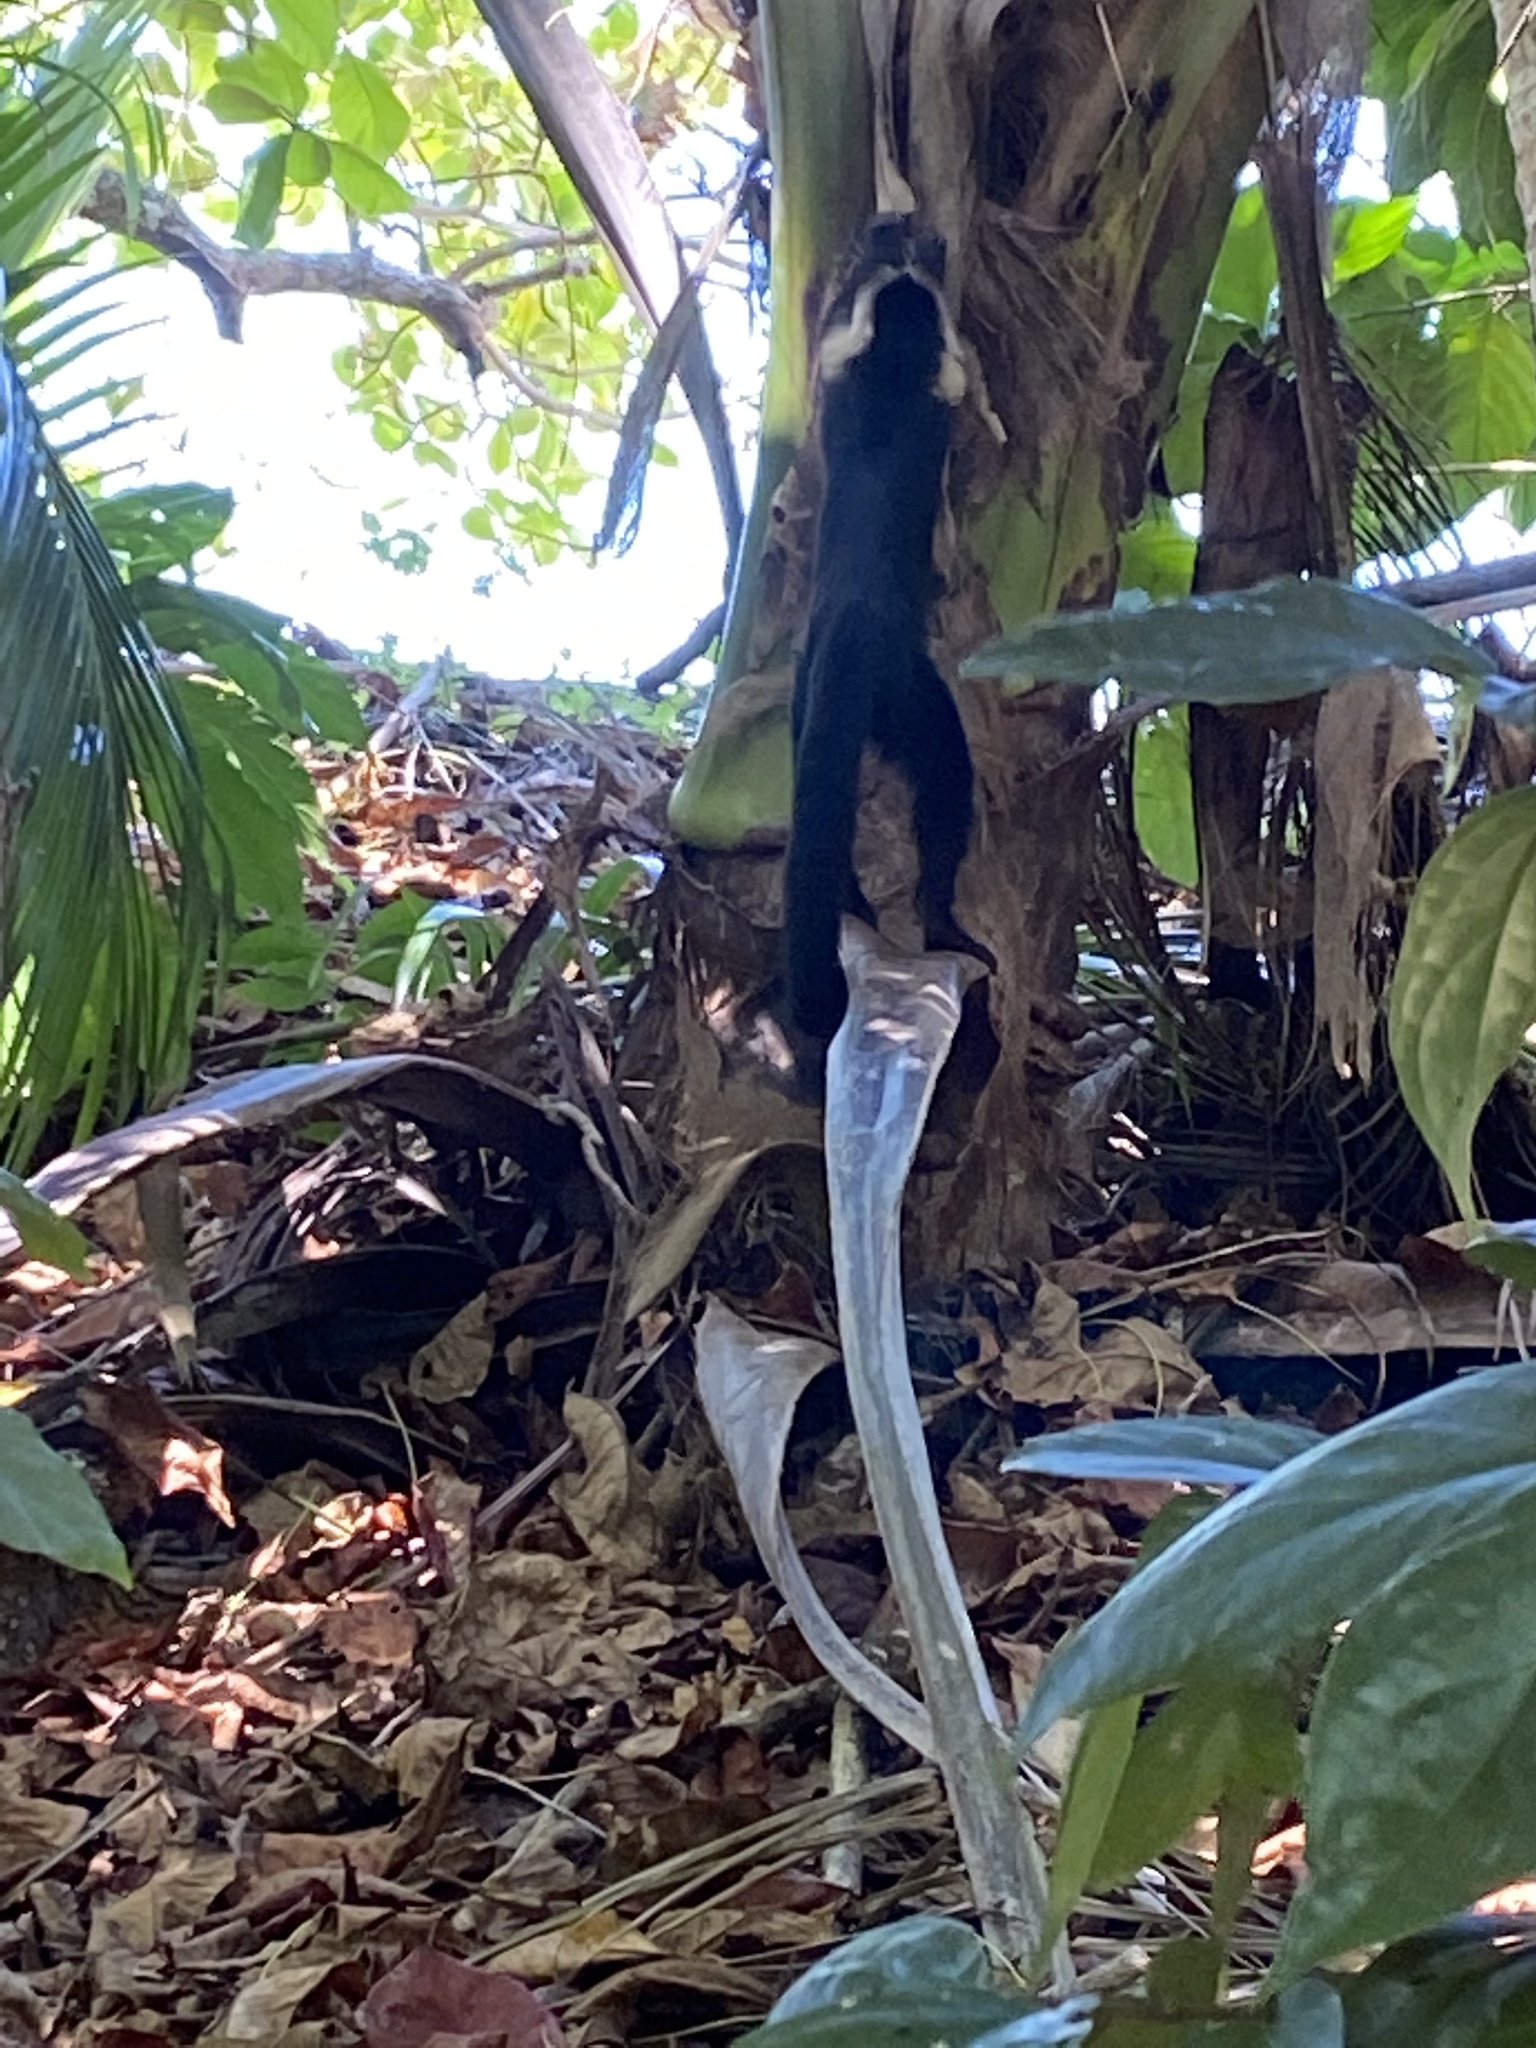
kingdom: Animalia
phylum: Chordata
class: Mammalia
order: Primates
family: Cebidae
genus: Cebus
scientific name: Cebus imitator
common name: Panamanian white-faced capuchin
